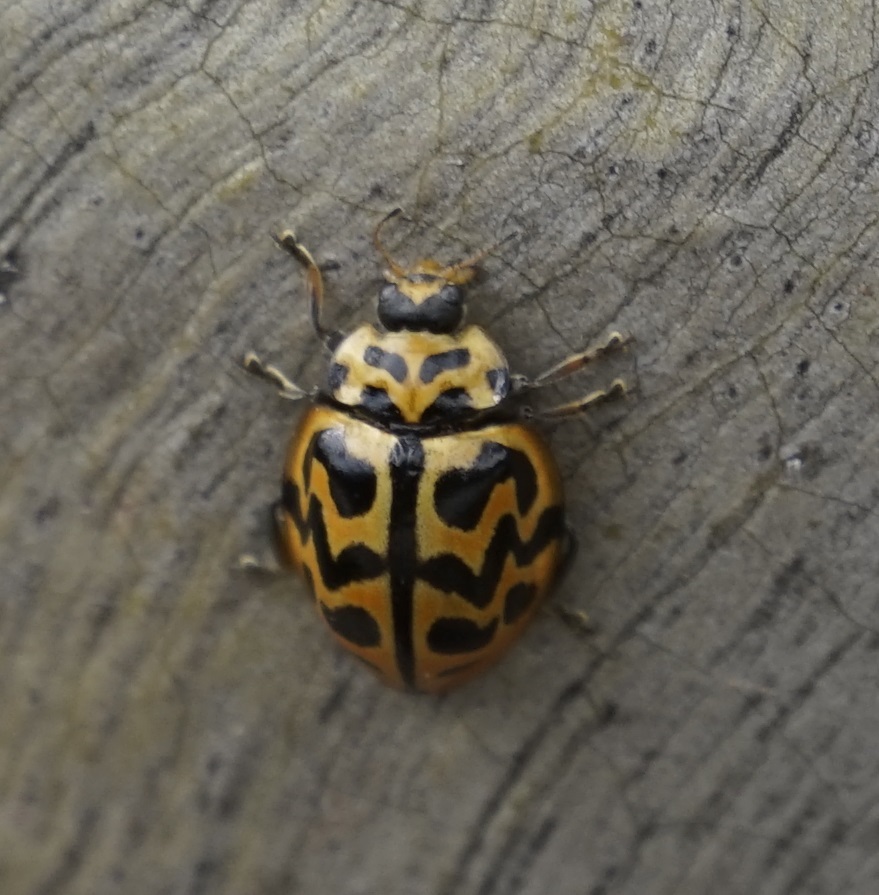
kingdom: Animalia
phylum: Arthropoda
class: Insecta
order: Coleoptera
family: Coccinellidae
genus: Cleobora
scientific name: Cleobora
